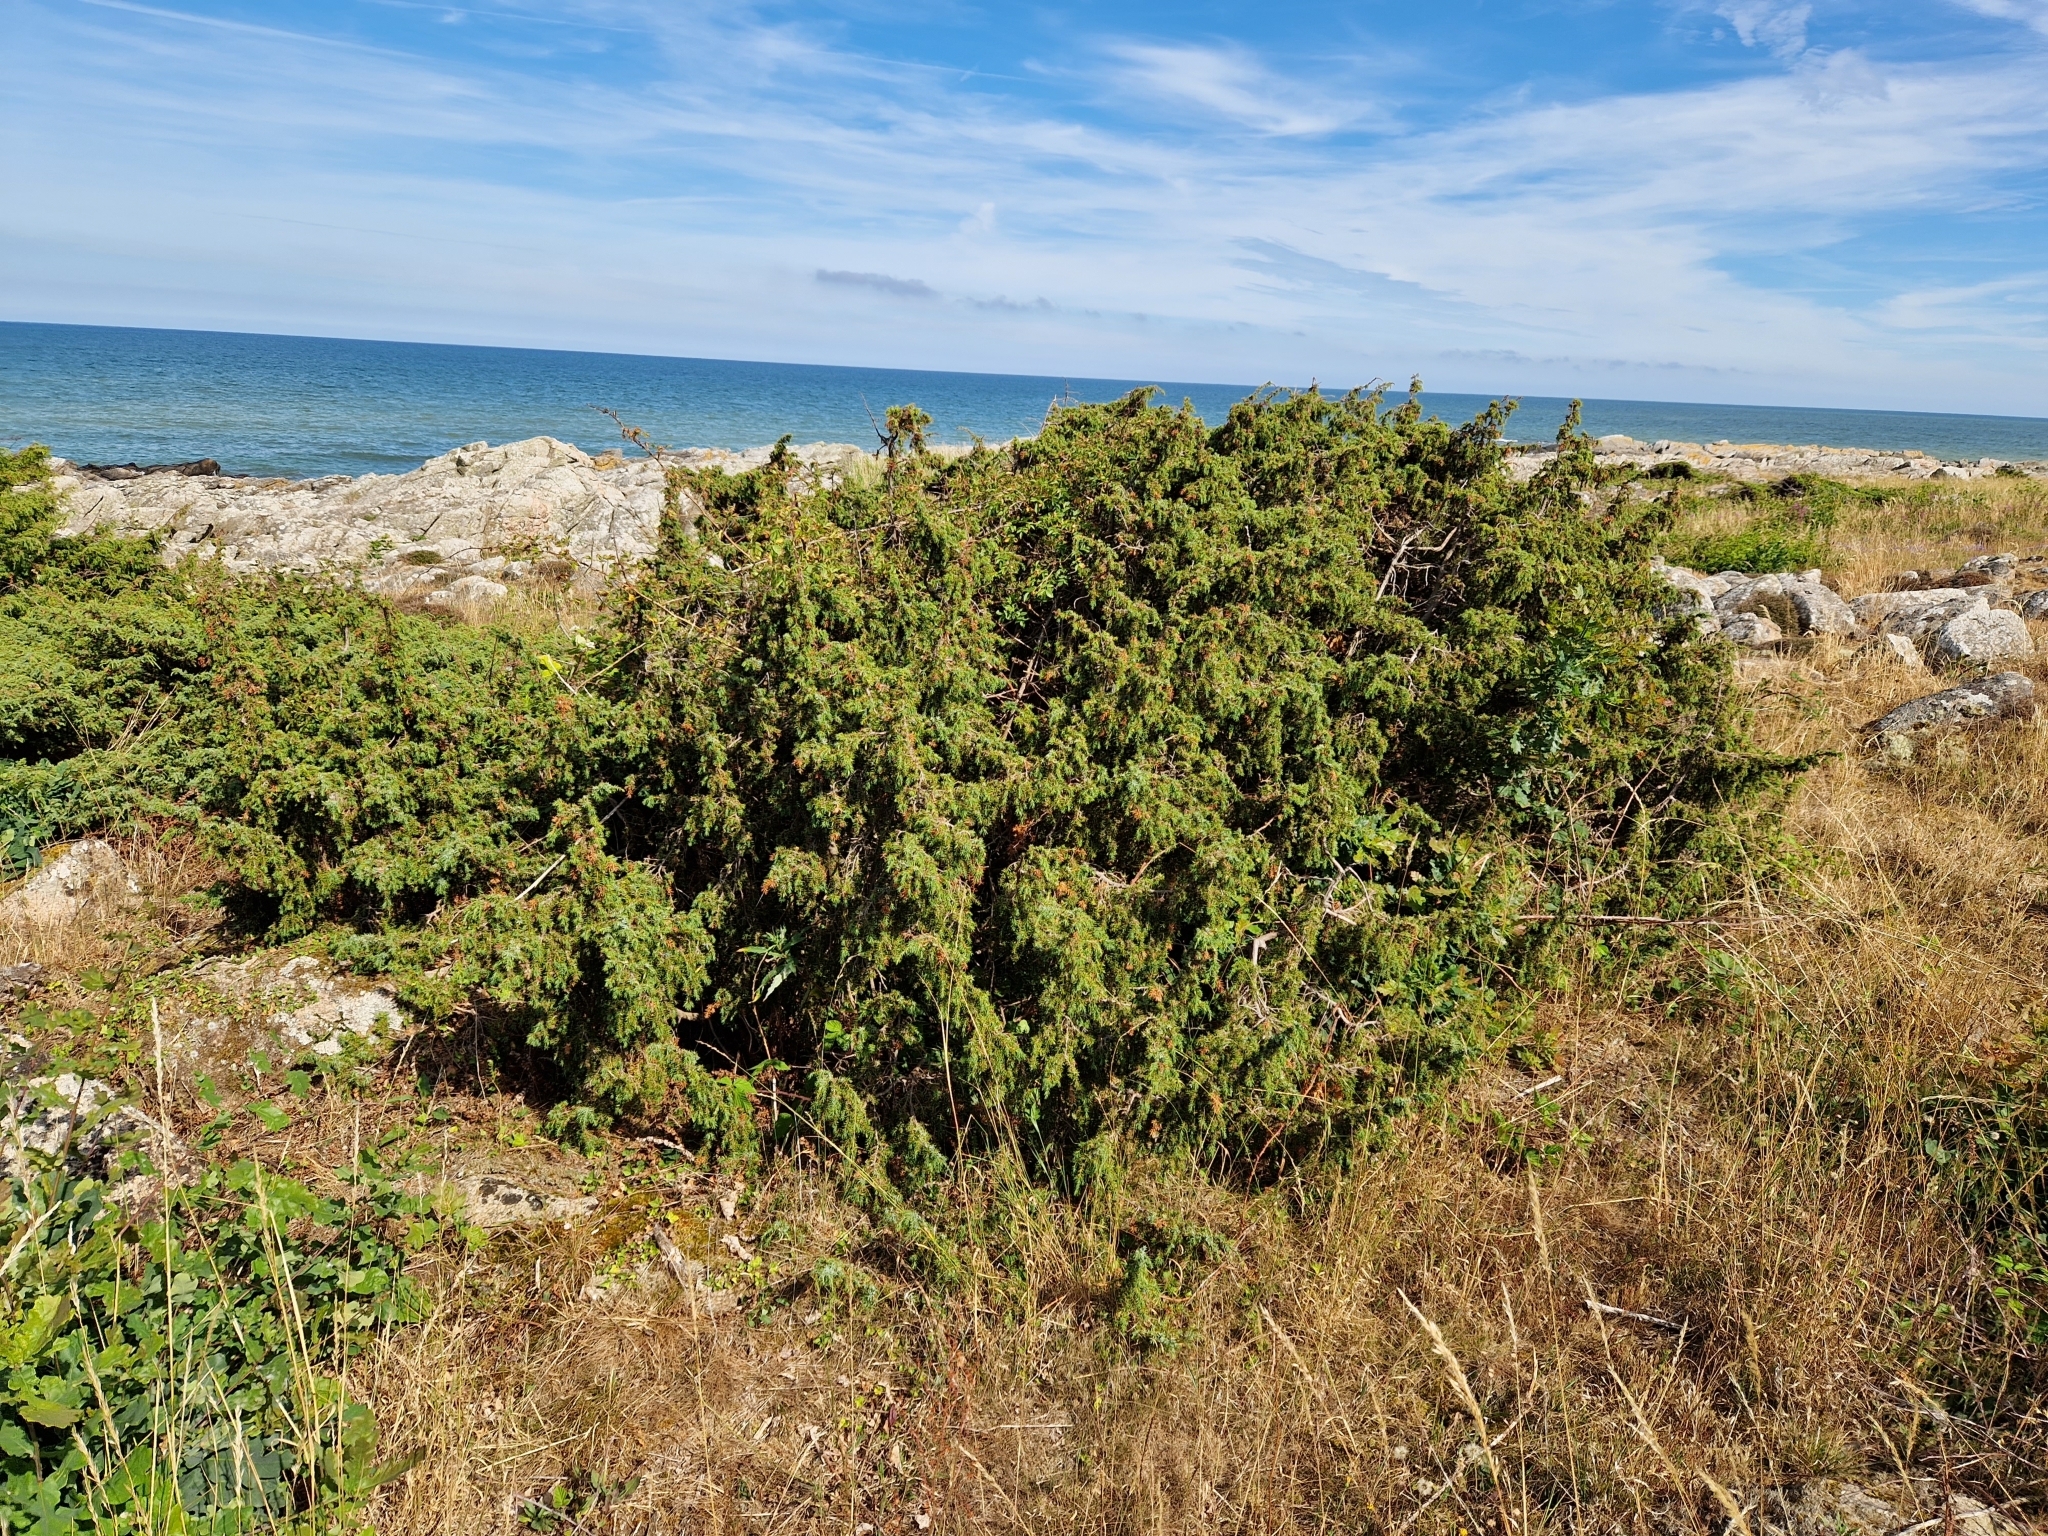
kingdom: Plantae
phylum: Tracheophyta
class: Pinopsida
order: Pinales
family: Cupressaceae
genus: Juniperus
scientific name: Juniperus communis
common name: Common juniper
